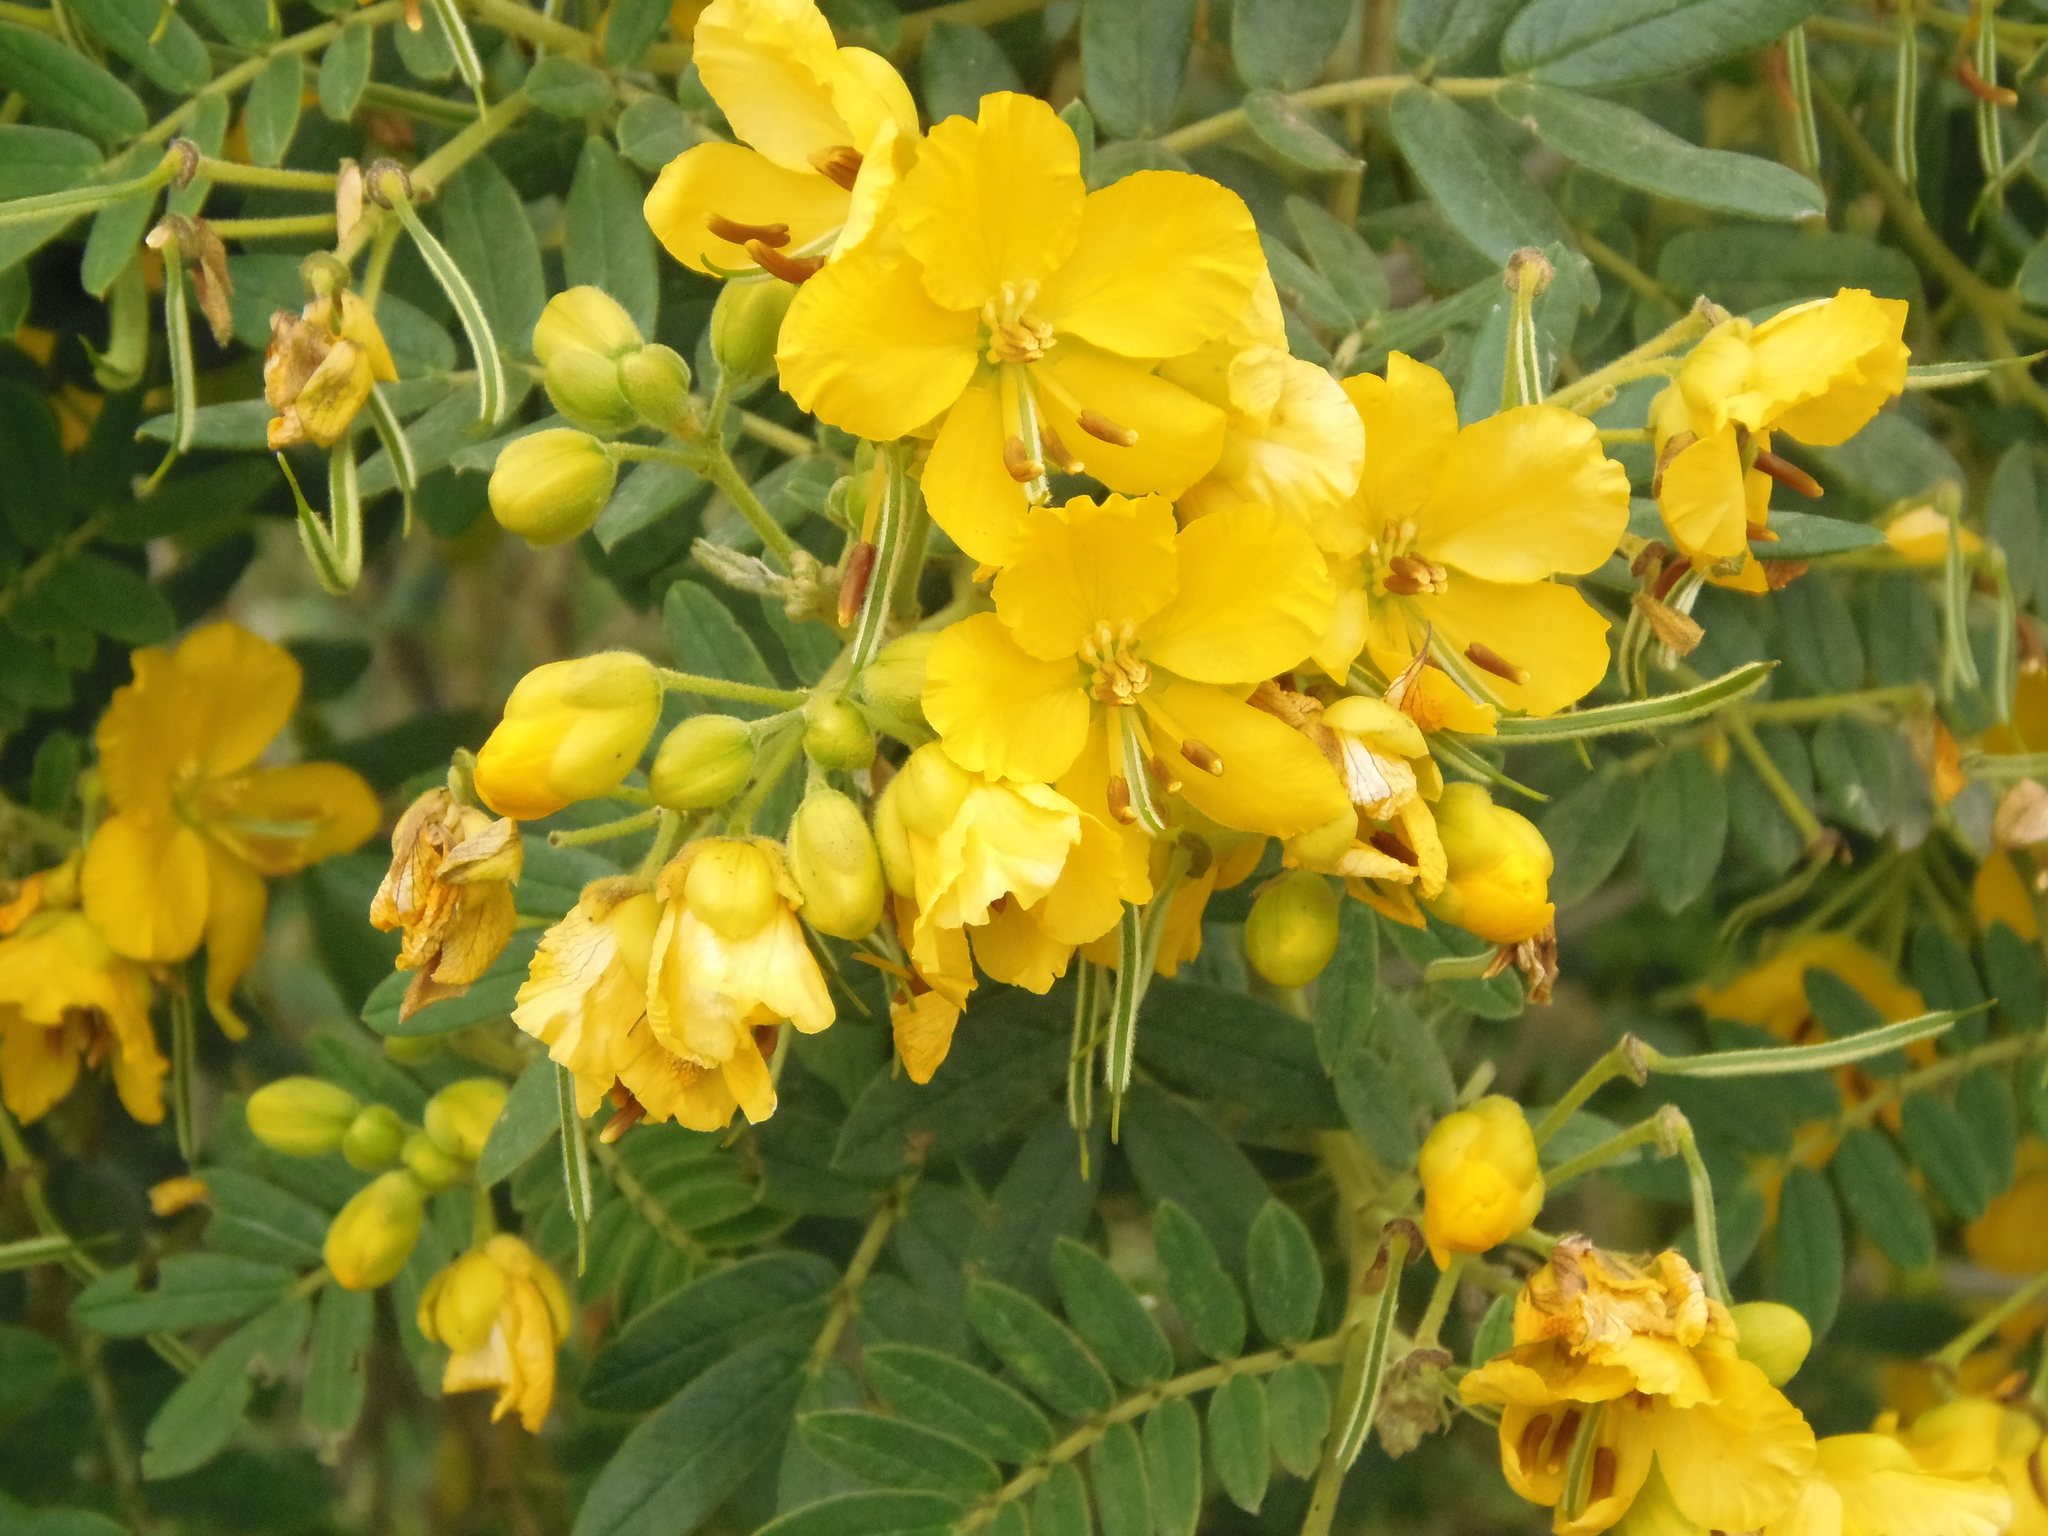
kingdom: Plantae
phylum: Tracheophyta
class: Magnoliopsida
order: Fabales
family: Fabaceae
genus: Senna
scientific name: Senna multiglandulosa
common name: Glandular senna
